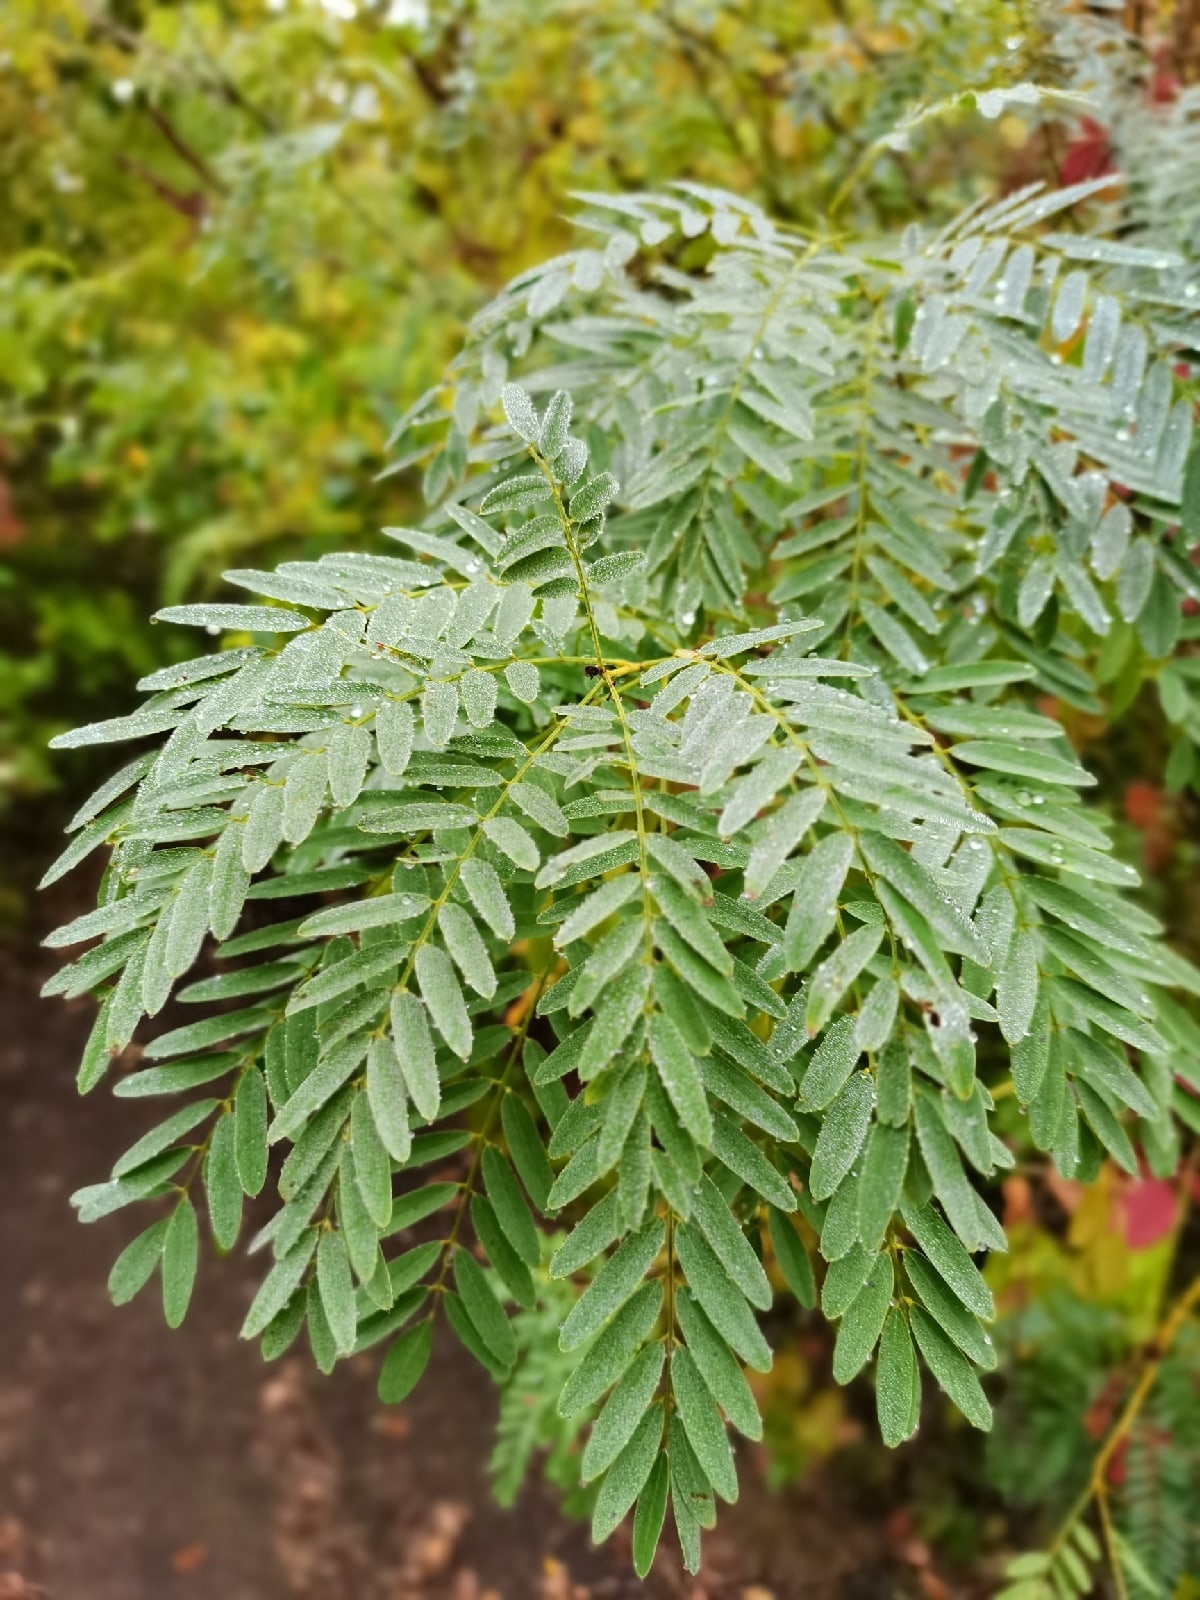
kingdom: Plantae
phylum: Tracheophyta
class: Magnoliopsida
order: Fabales
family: Fabaceae
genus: Amorpha
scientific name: Amorpha fruticosa
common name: False indigo
